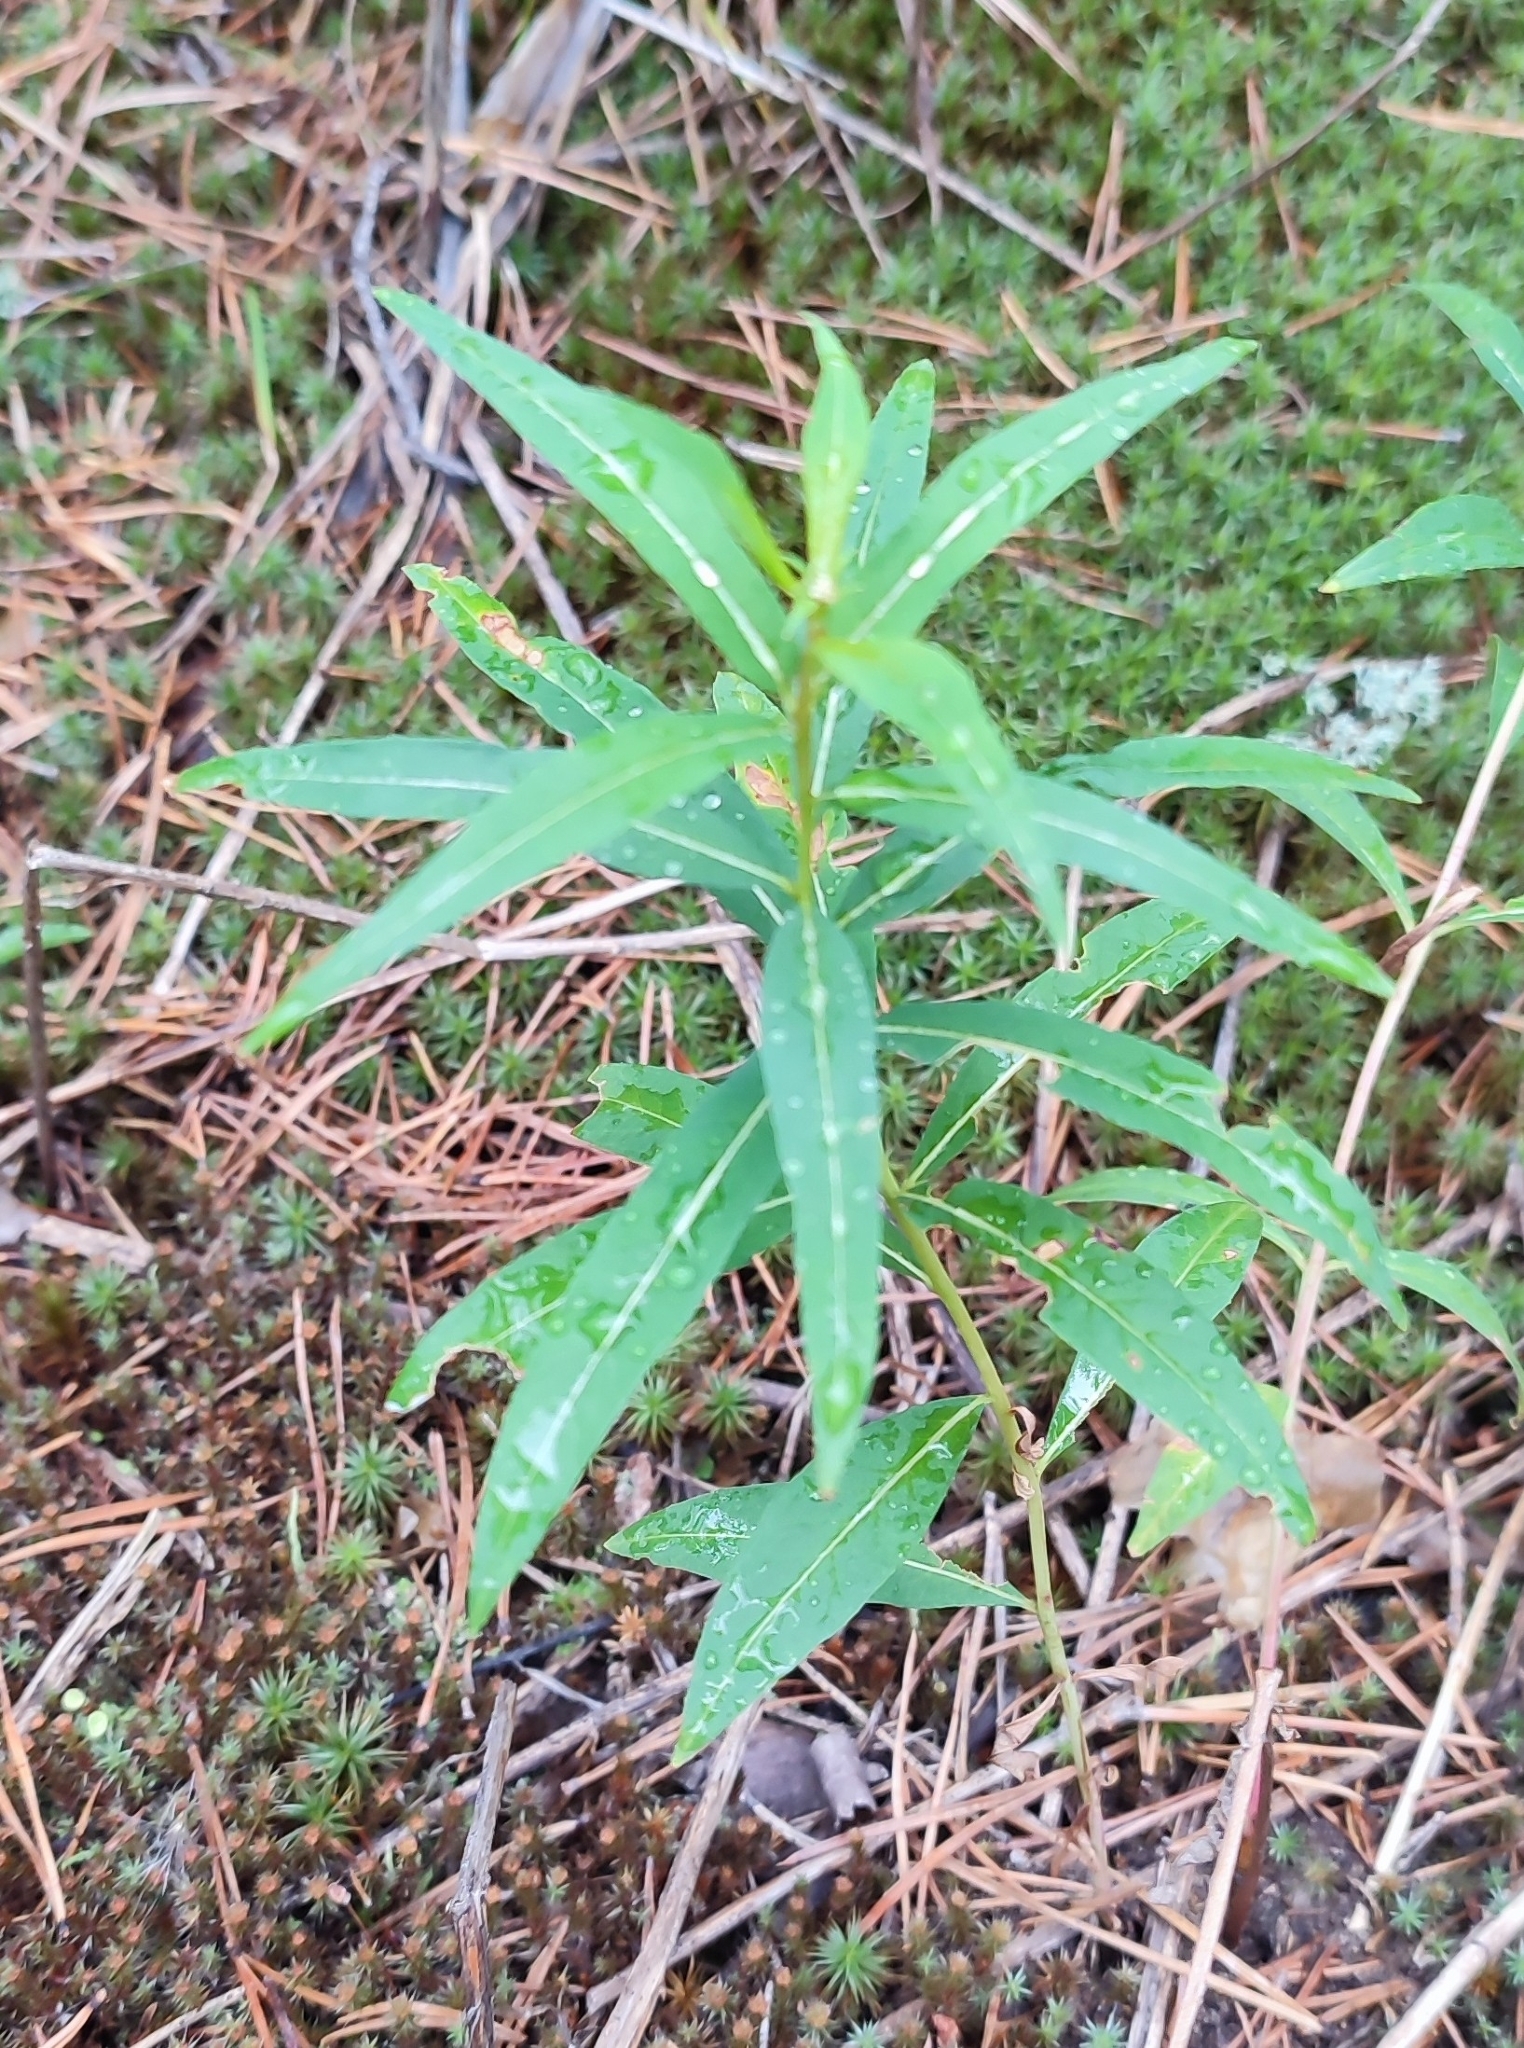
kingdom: Plantae
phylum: Tracheophyta
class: Magnoliopsida
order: Myrtales
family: Onagraceae
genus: Chamaenerion
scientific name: Chamaenerion angustifolium
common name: Fireweed
